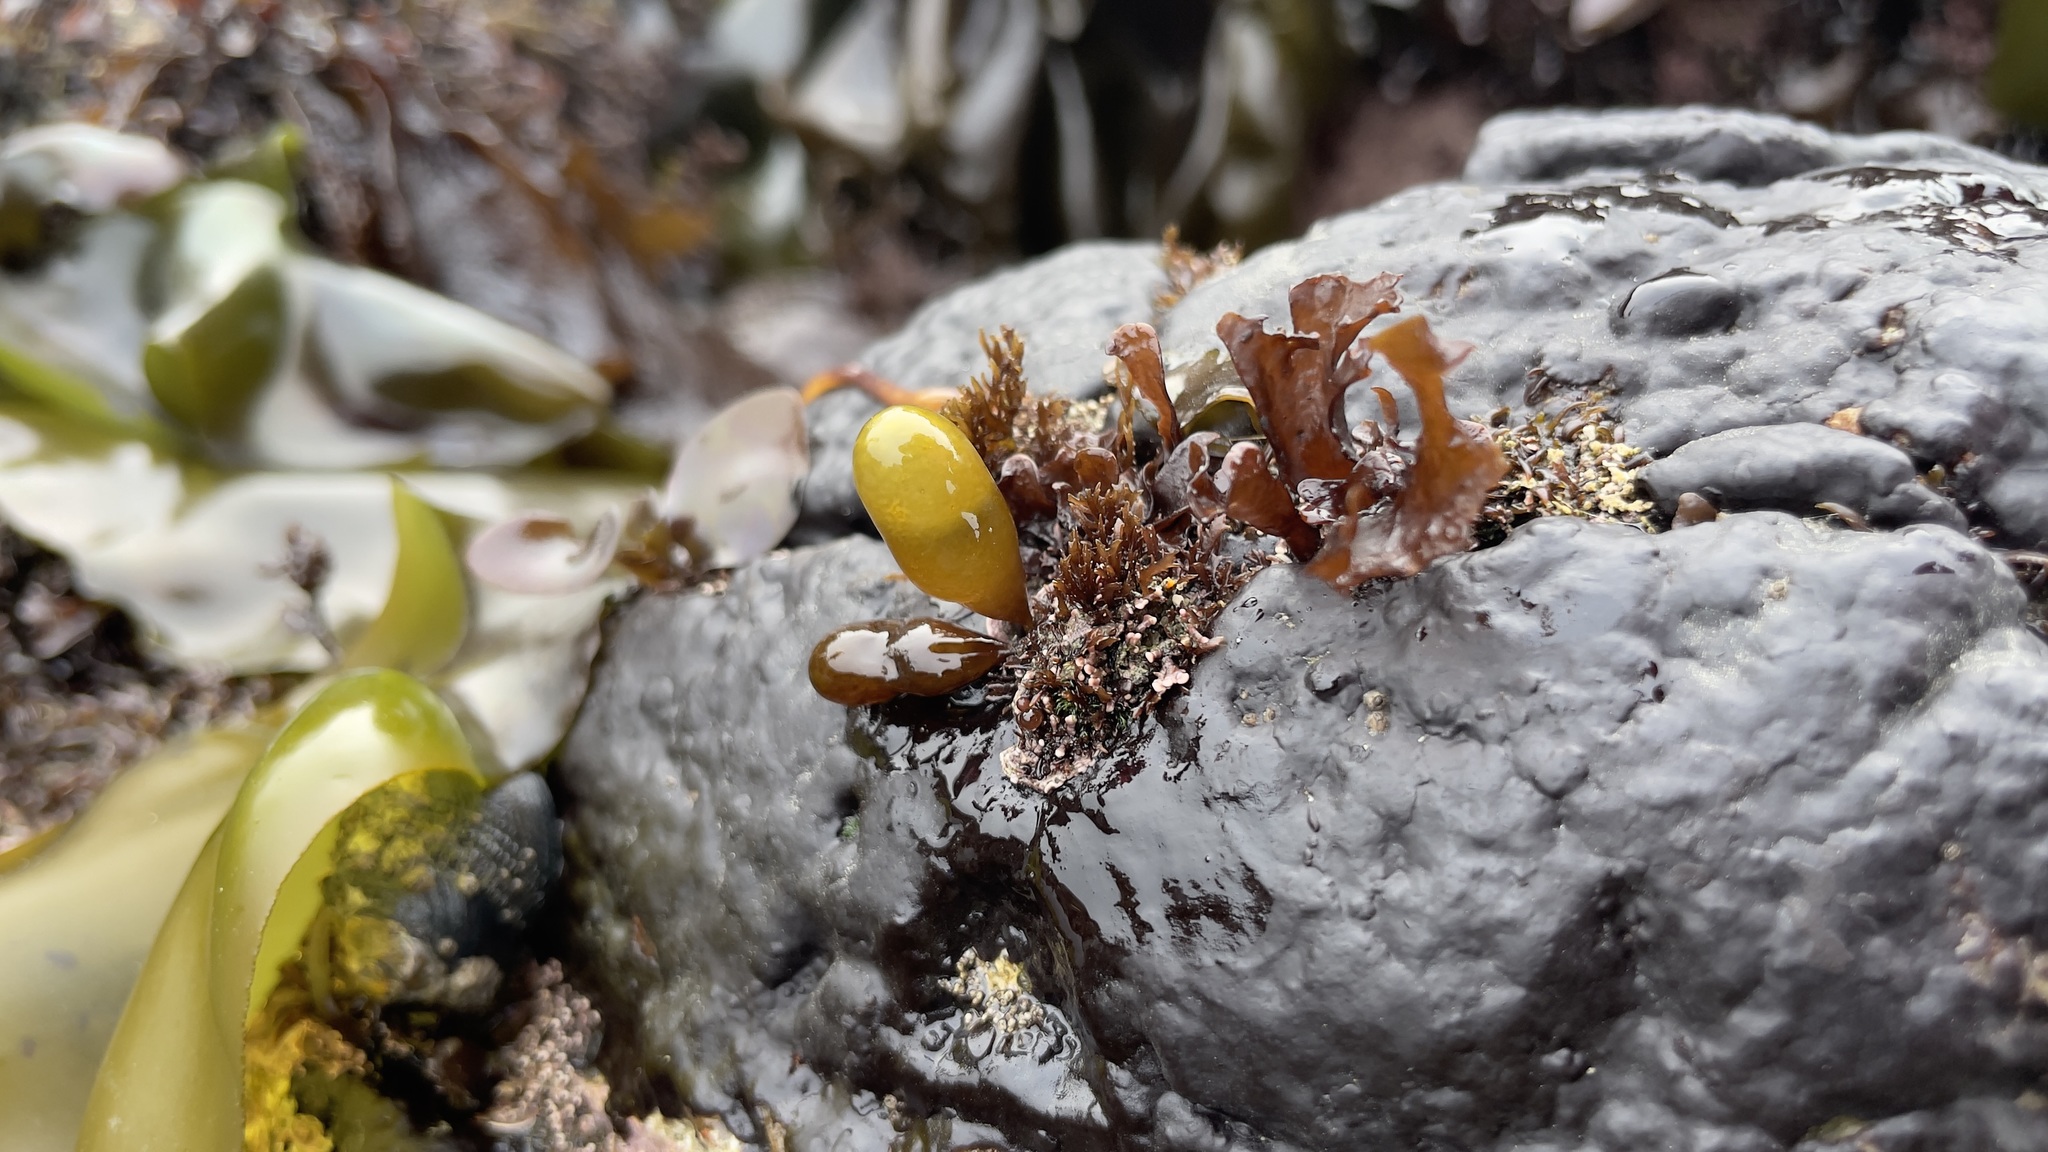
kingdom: Plantae
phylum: Rhodophyta
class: Florideophyceae
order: Palmariales
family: Palmariaceae
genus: Halosaccion
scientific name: Halosaccion glandiforme
